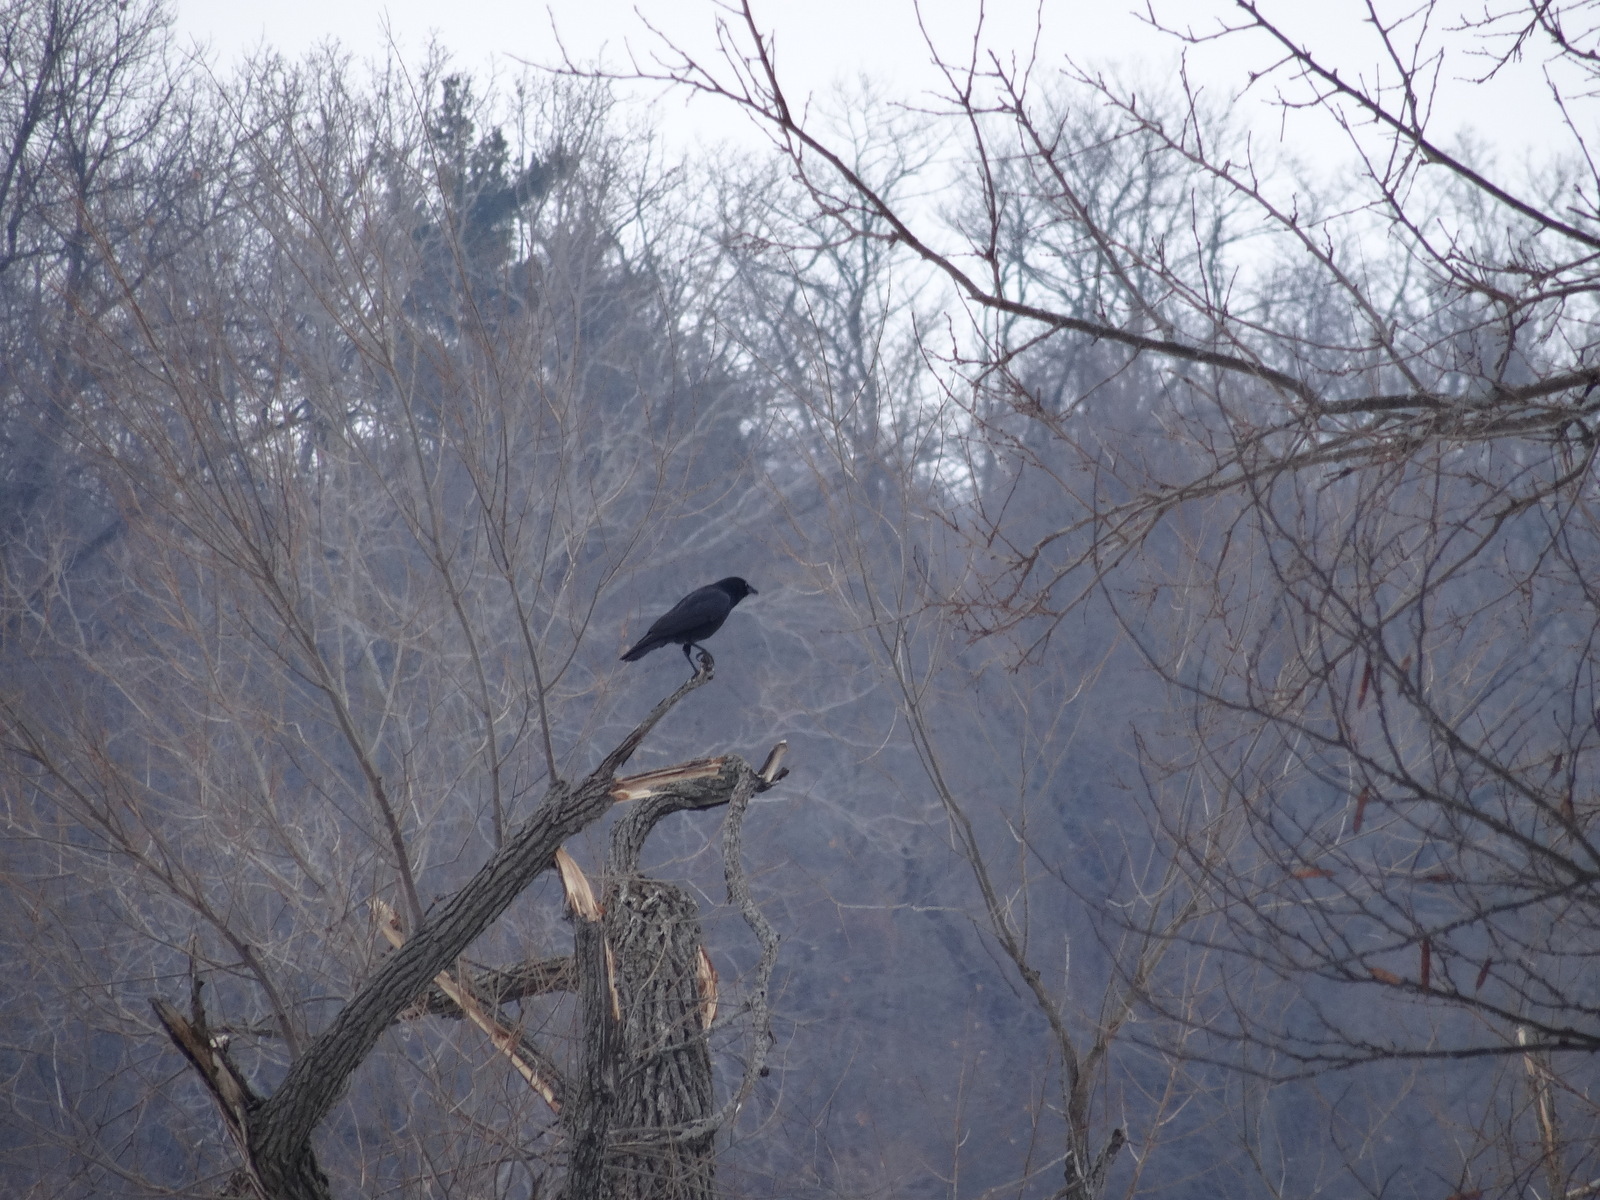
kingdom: Animalia
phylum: Chordata
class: Aves
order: Passeriformes
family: Corvidae
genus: Corvus
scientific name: Corvus brachyrhynchos
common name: American crow
